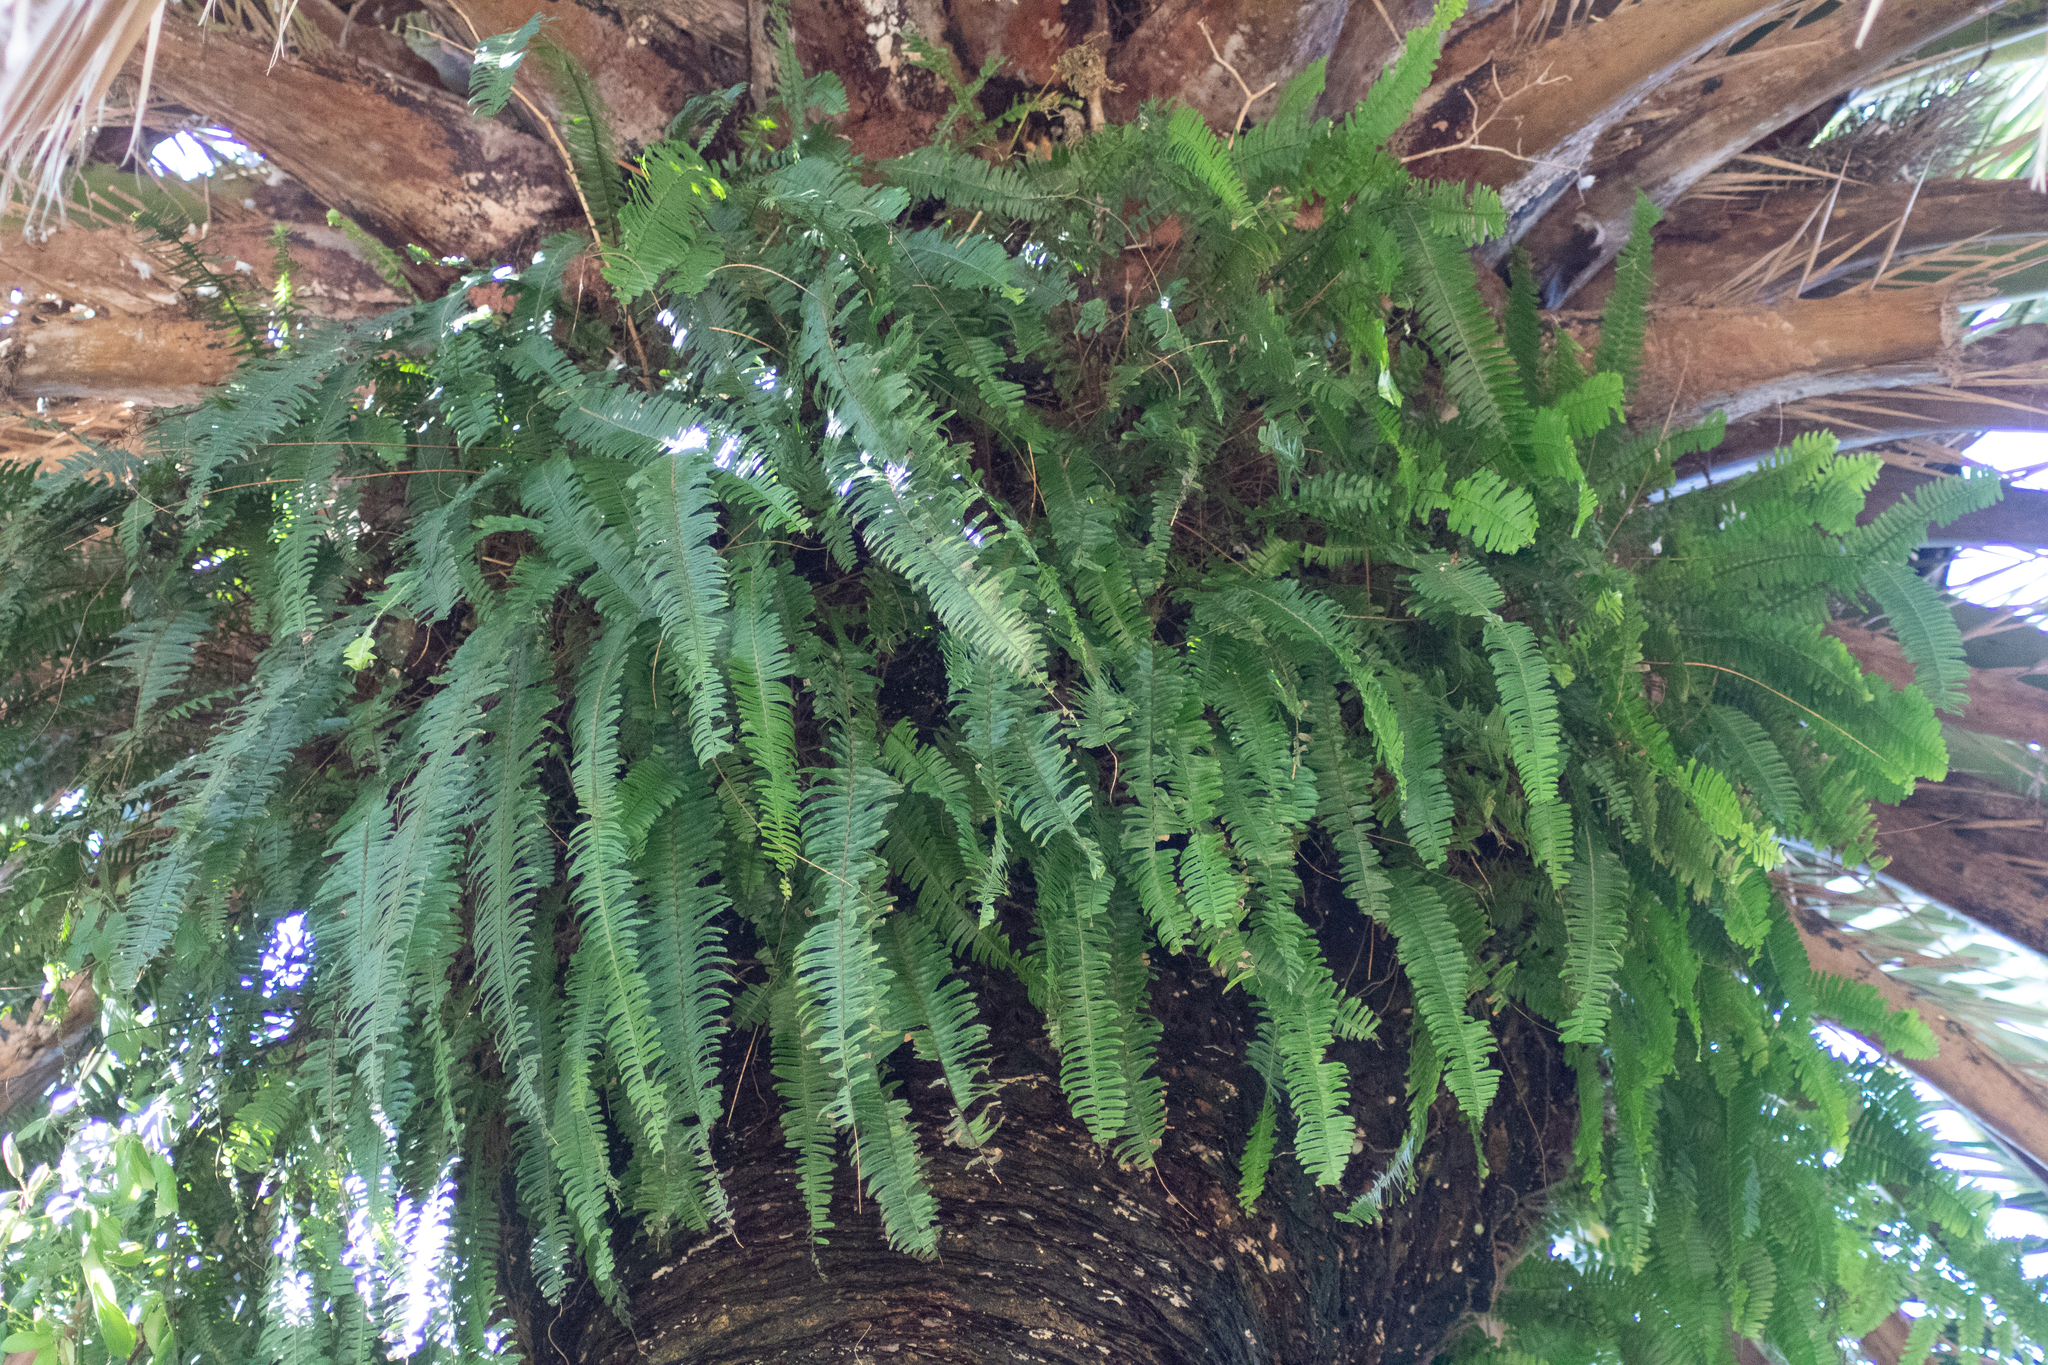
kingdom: Plantae
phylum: Tracheophyta
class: Polypodiopsida
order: Polypodiales
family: Nephrolepidaceae
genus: Nephrolepis
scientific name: Nephrolepis cordifolia
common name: Narrow swordfern
